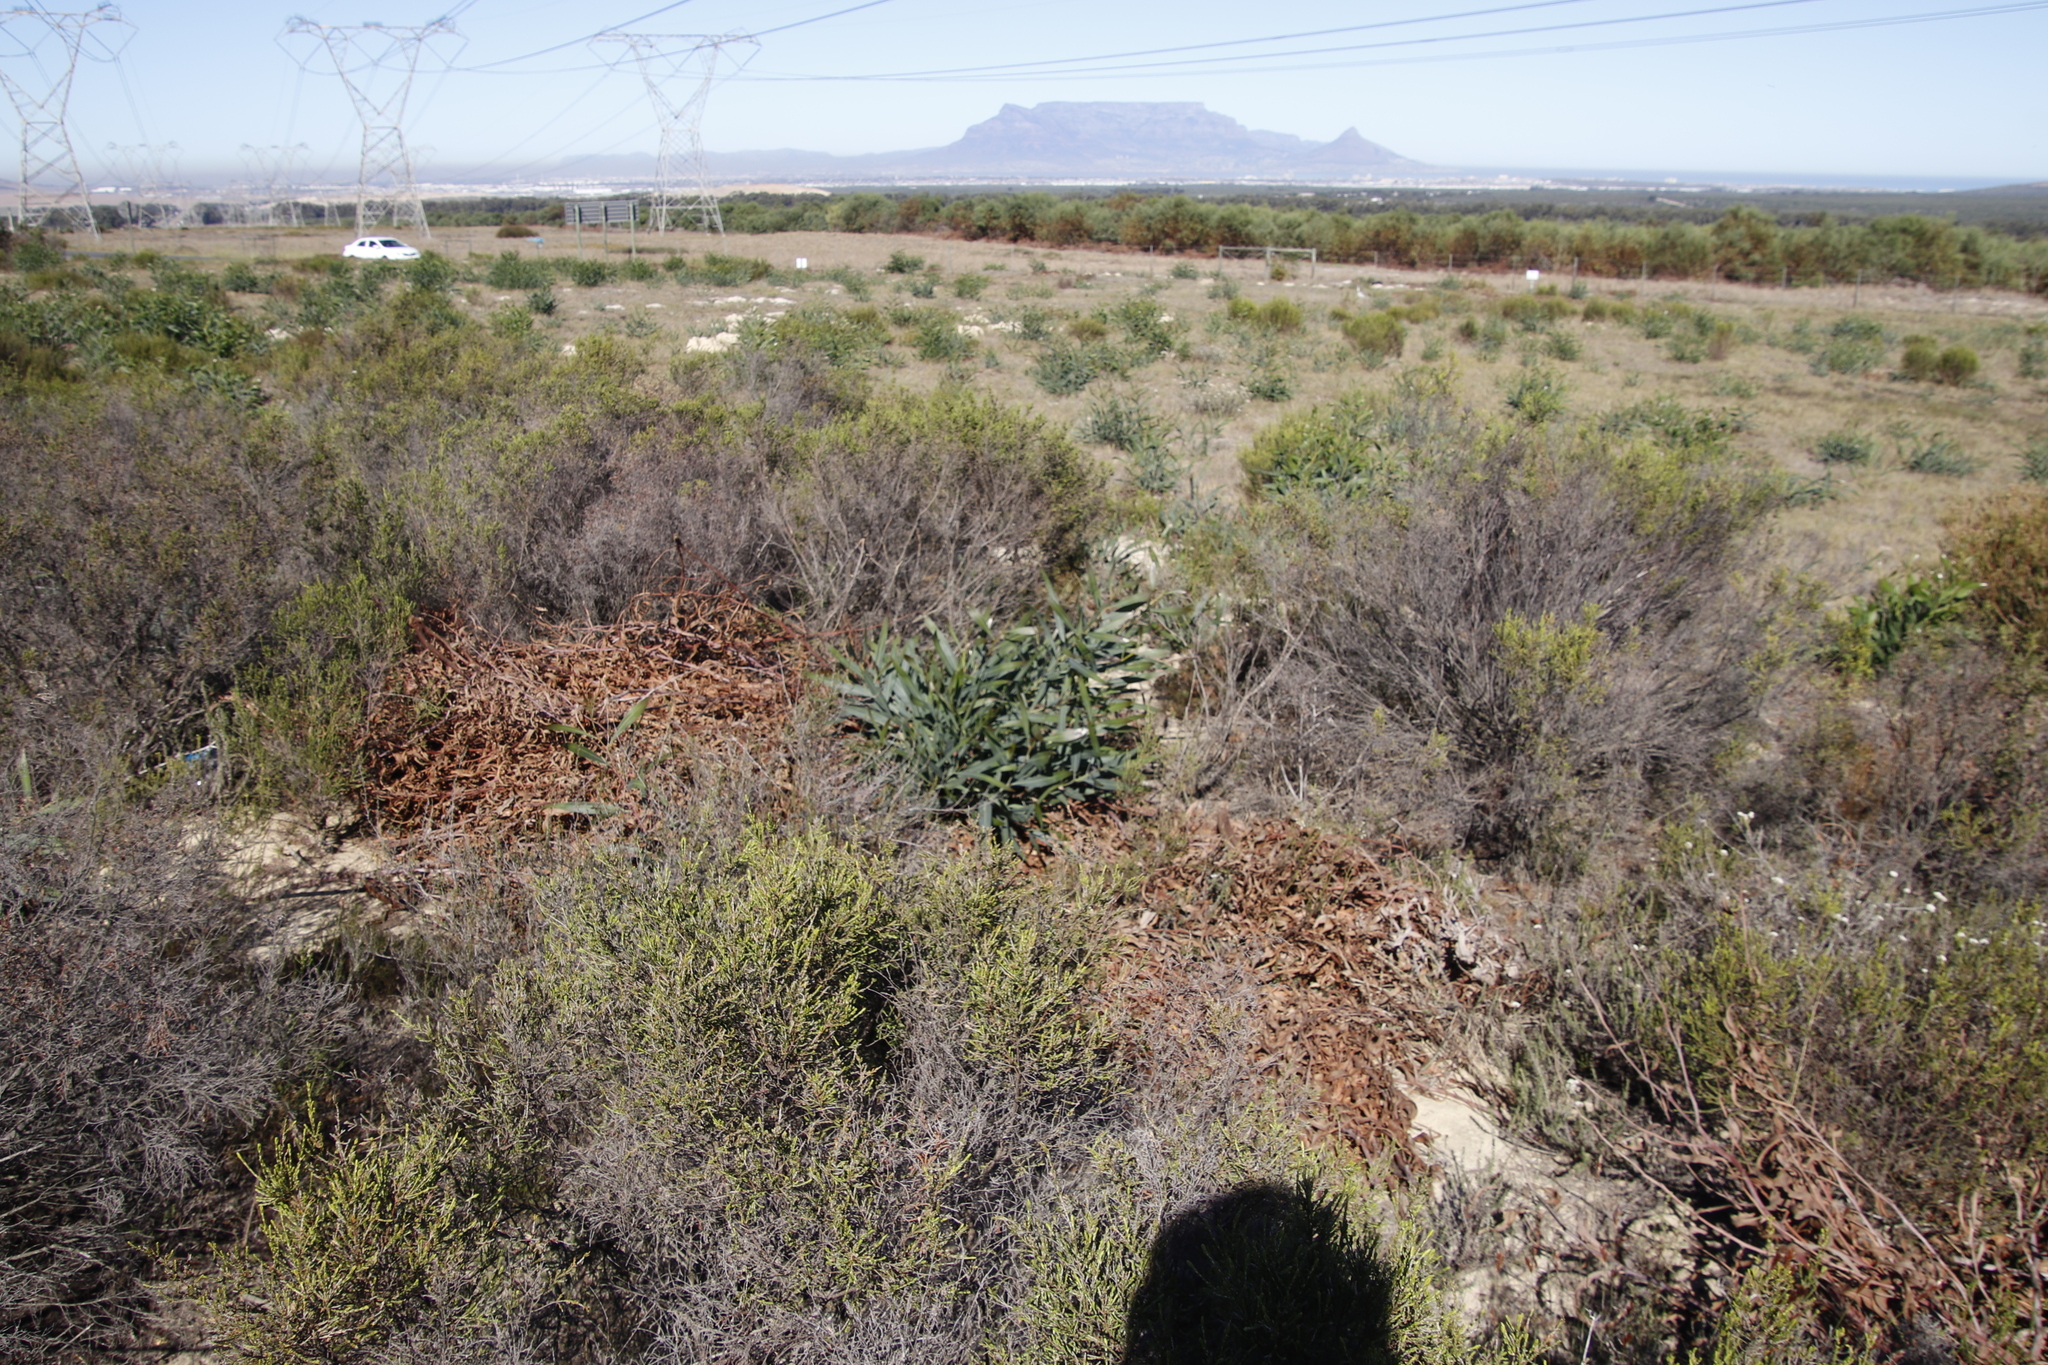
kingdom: Plantae
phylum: Tracheophyta
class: Magnoliopsida
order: Fabales
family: Fabaceae
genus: Acacia
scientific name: Acacia saligna
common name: Orange wattle
